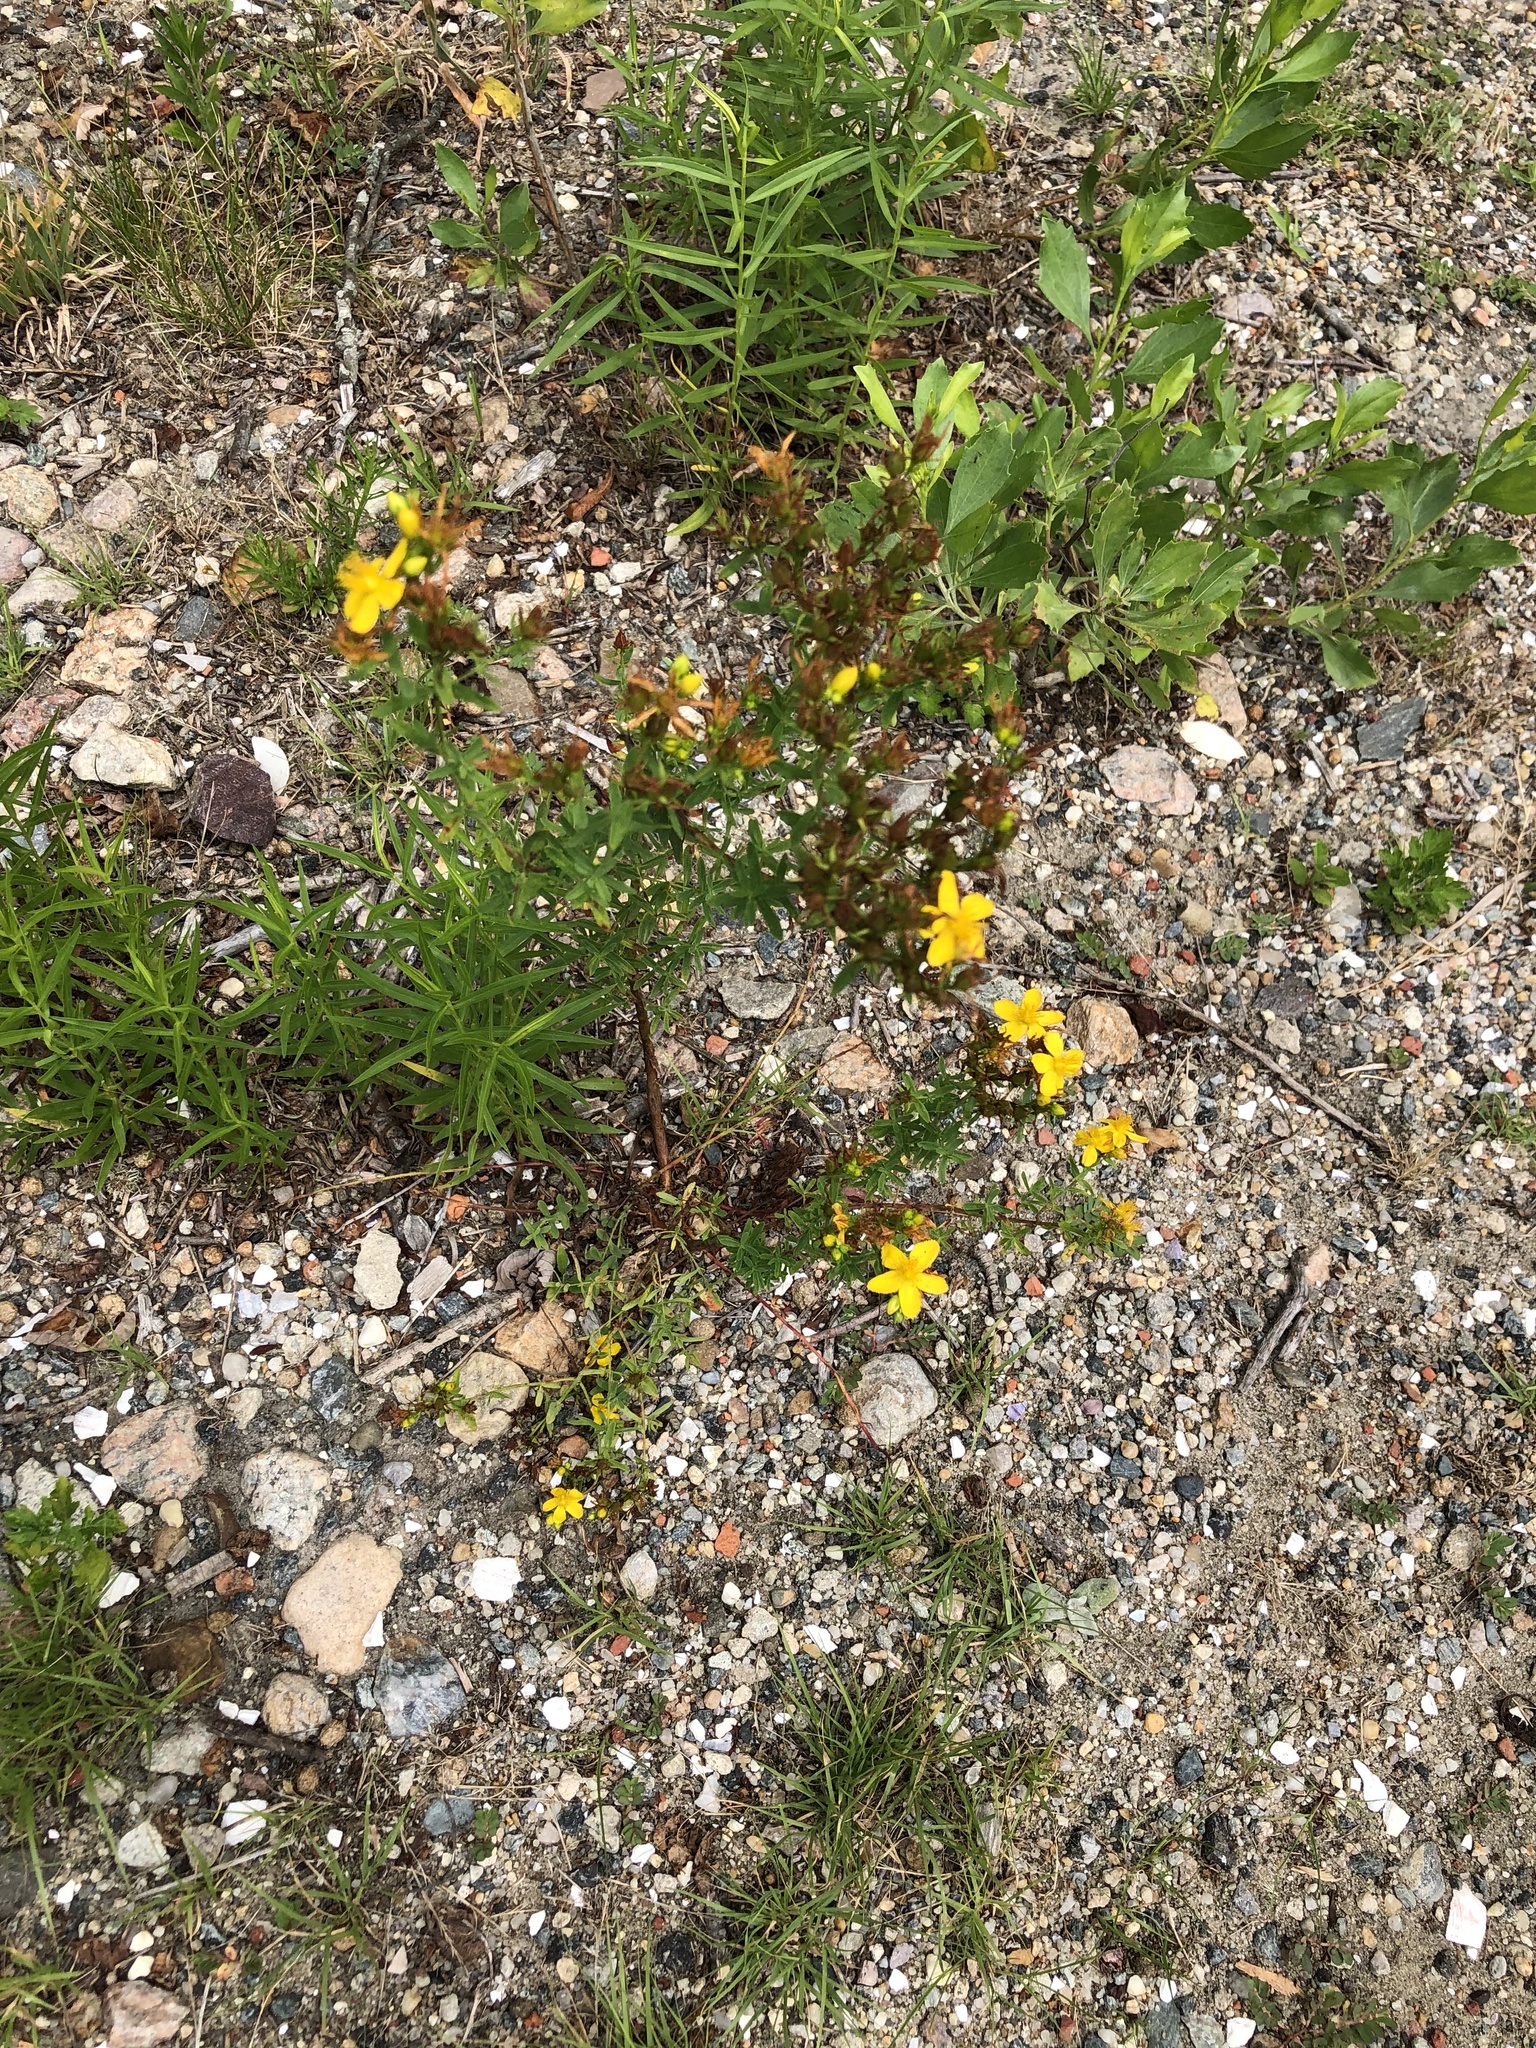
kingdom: Plantae
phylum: Tracheophyta
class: Magnoliopsida
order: Malpighiales
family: Hypericaceae
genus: Hypericum
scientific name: Hypericum perforatum
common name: Common st. johnswort
